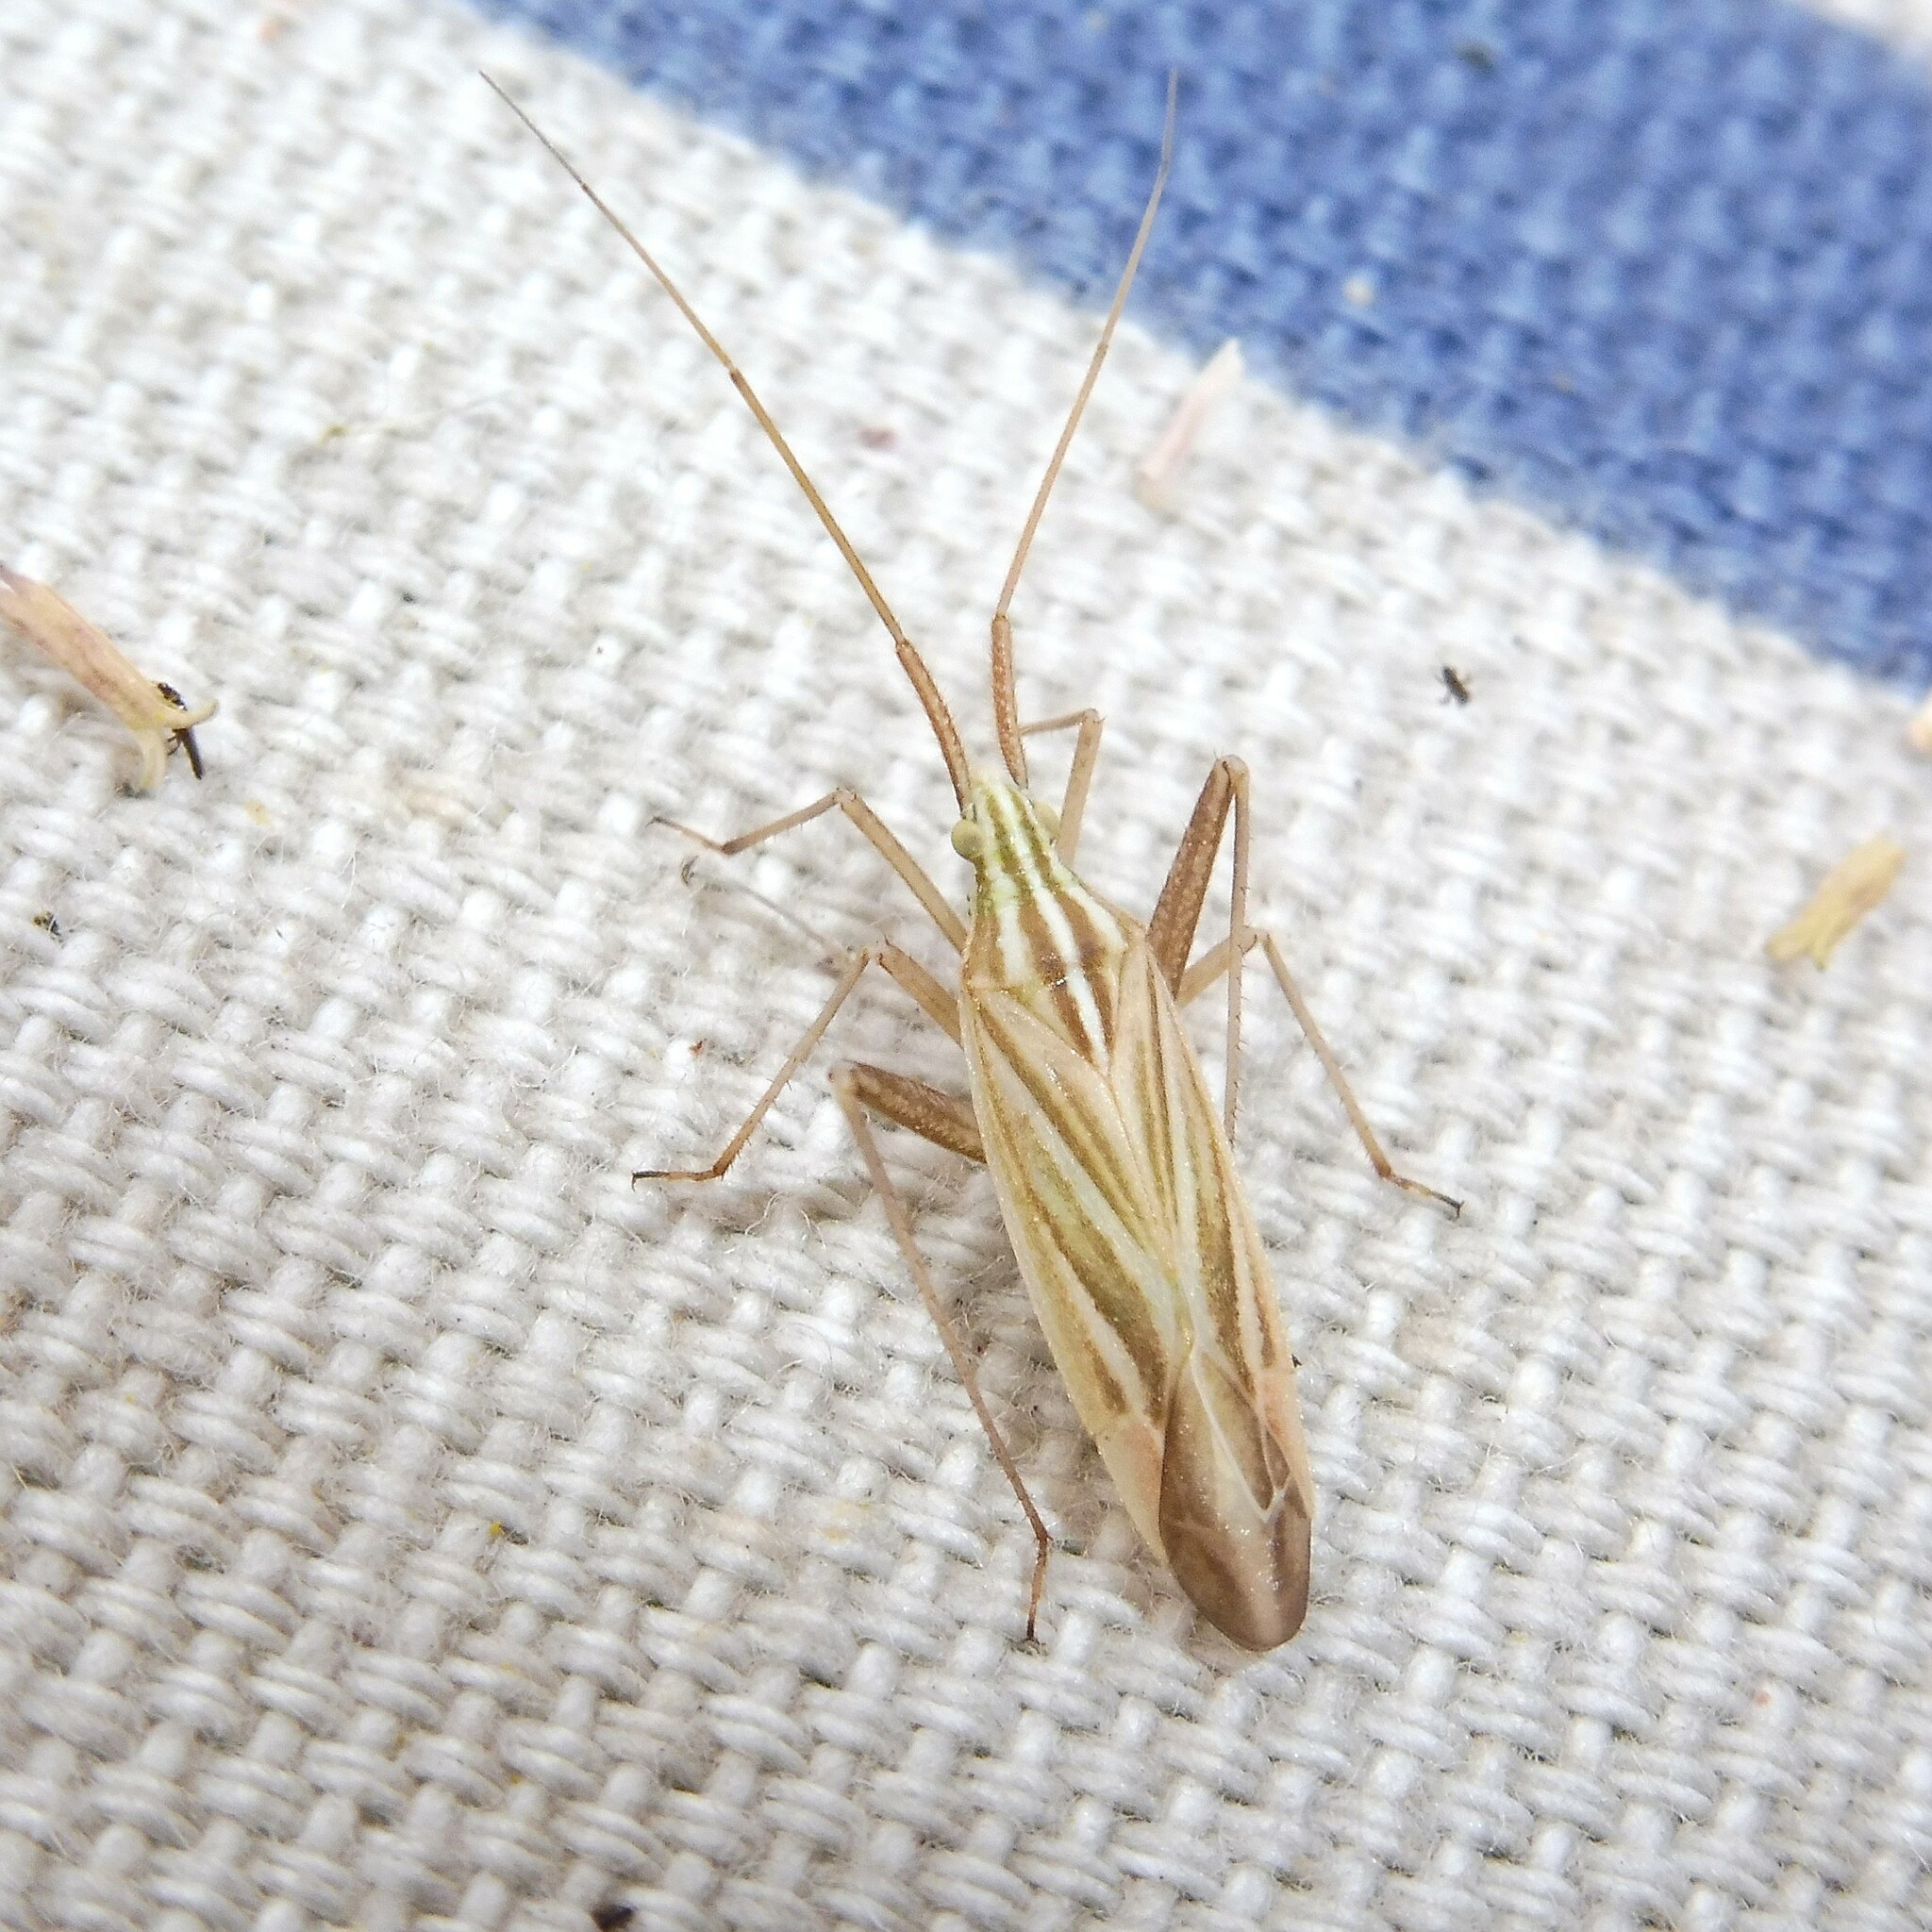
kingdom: Animalia
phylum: Arthropoda
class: Insecta
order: Hemiptera
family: Miridae
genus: Miridius
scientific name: Miridius quadrivirgatus
